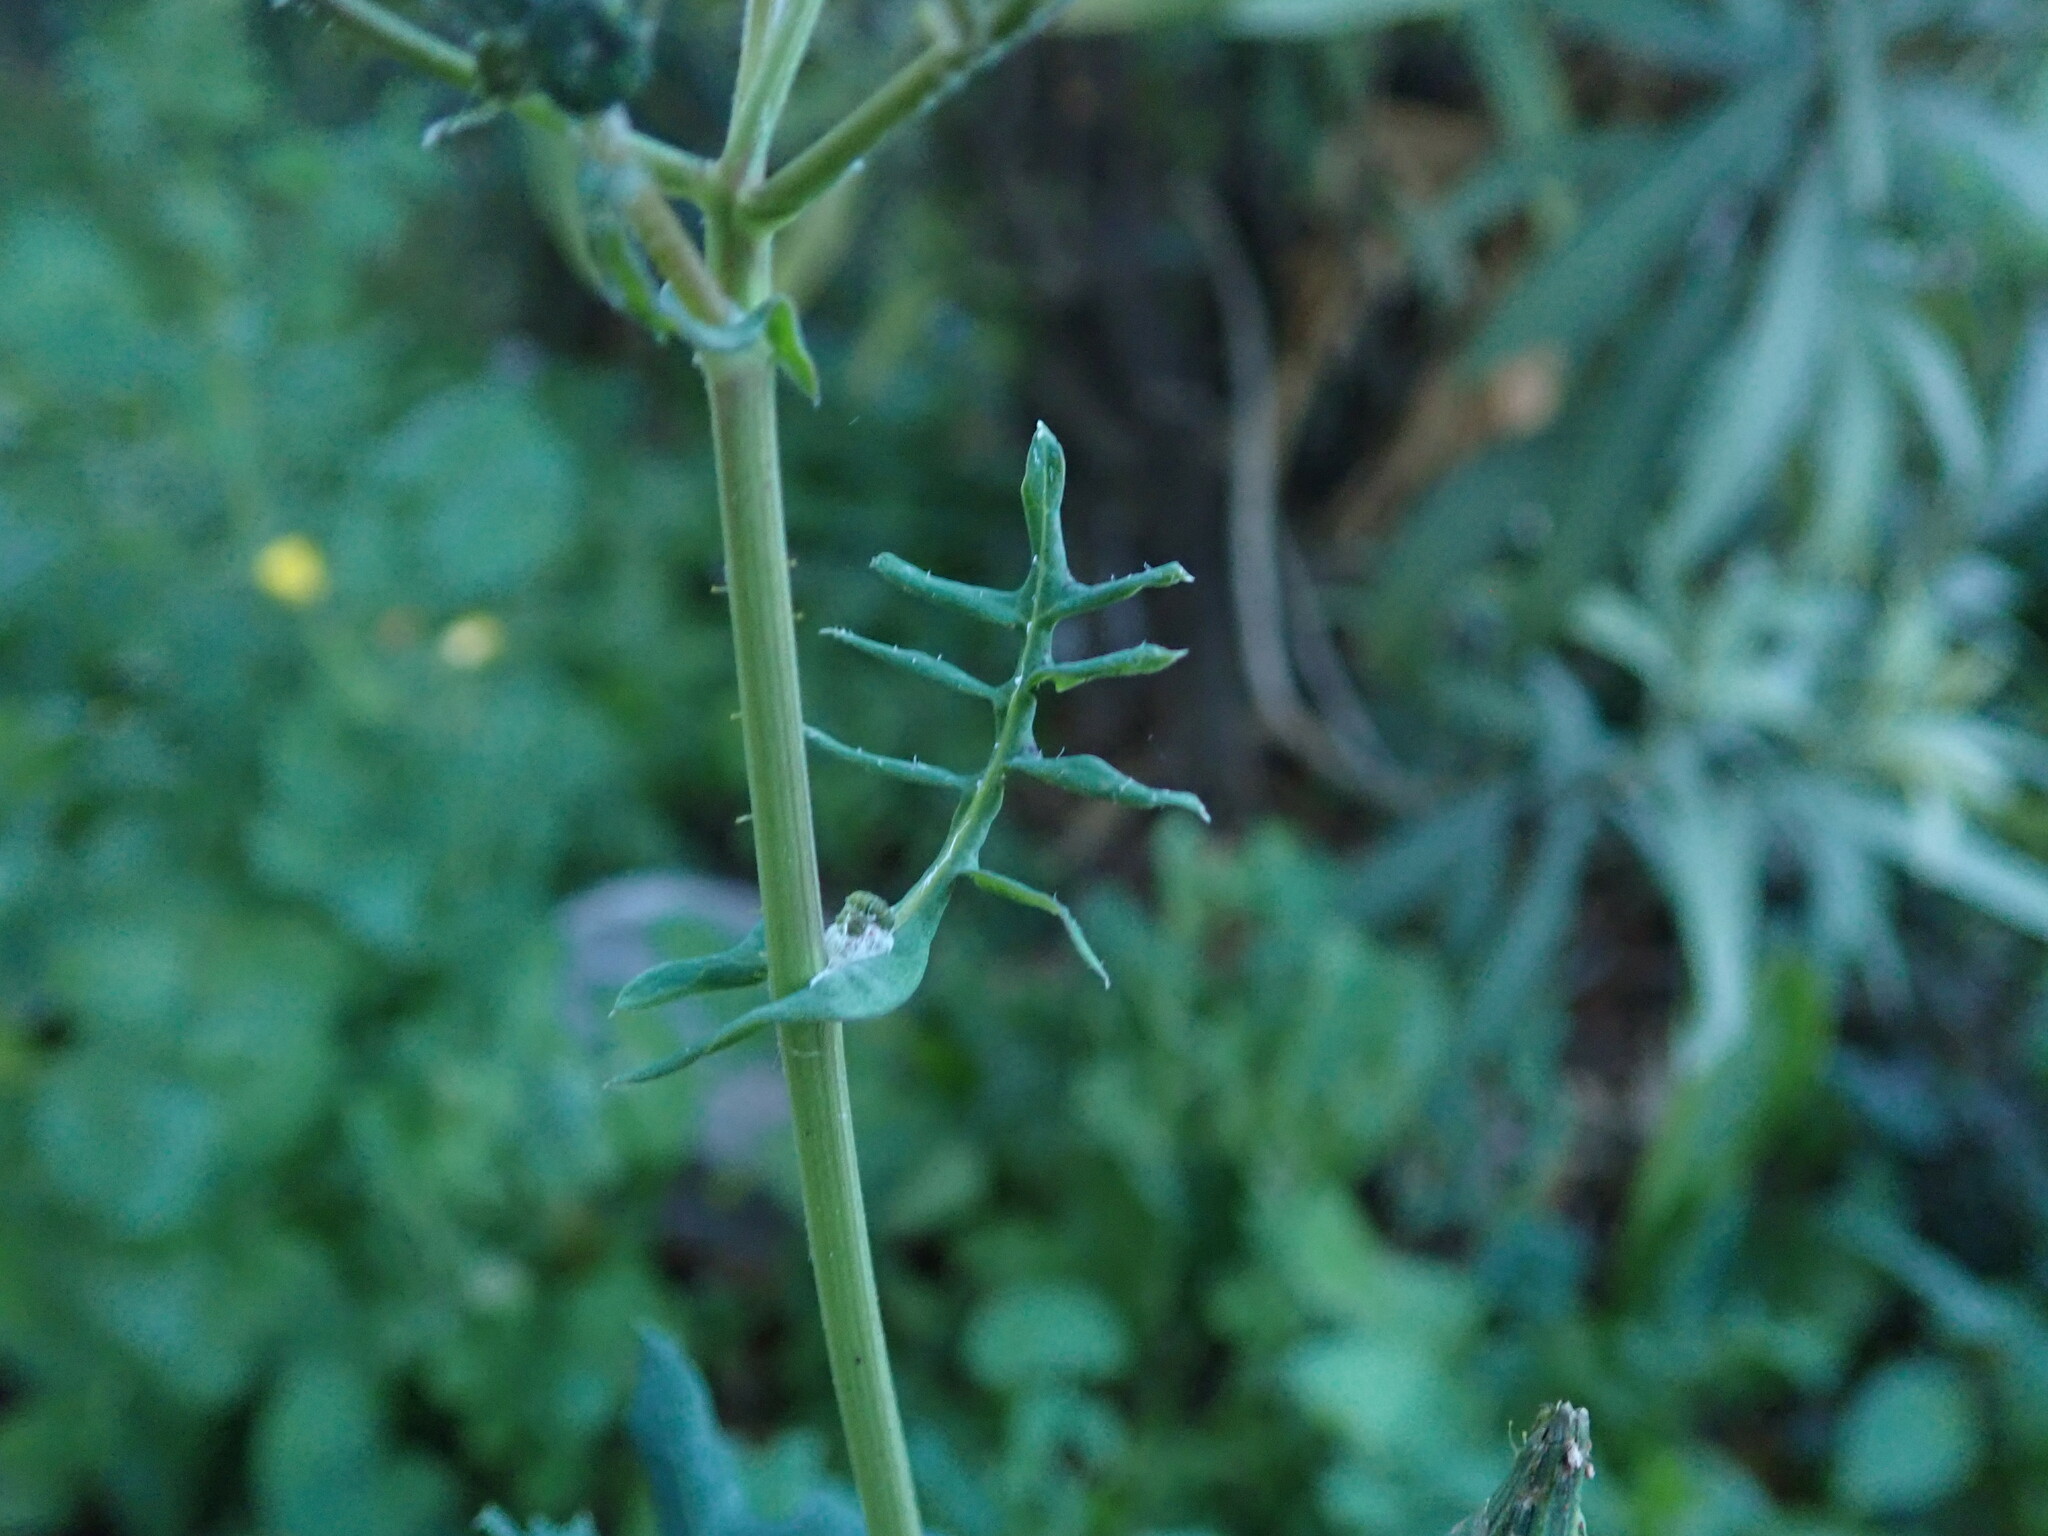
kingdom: Plantae
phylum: Tracheophyta
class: Magnoliopsida
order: Asterales
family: Asteraceae
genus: Sonchus
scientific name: Sonchus tenerrimus
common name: Clammy sowthistle
